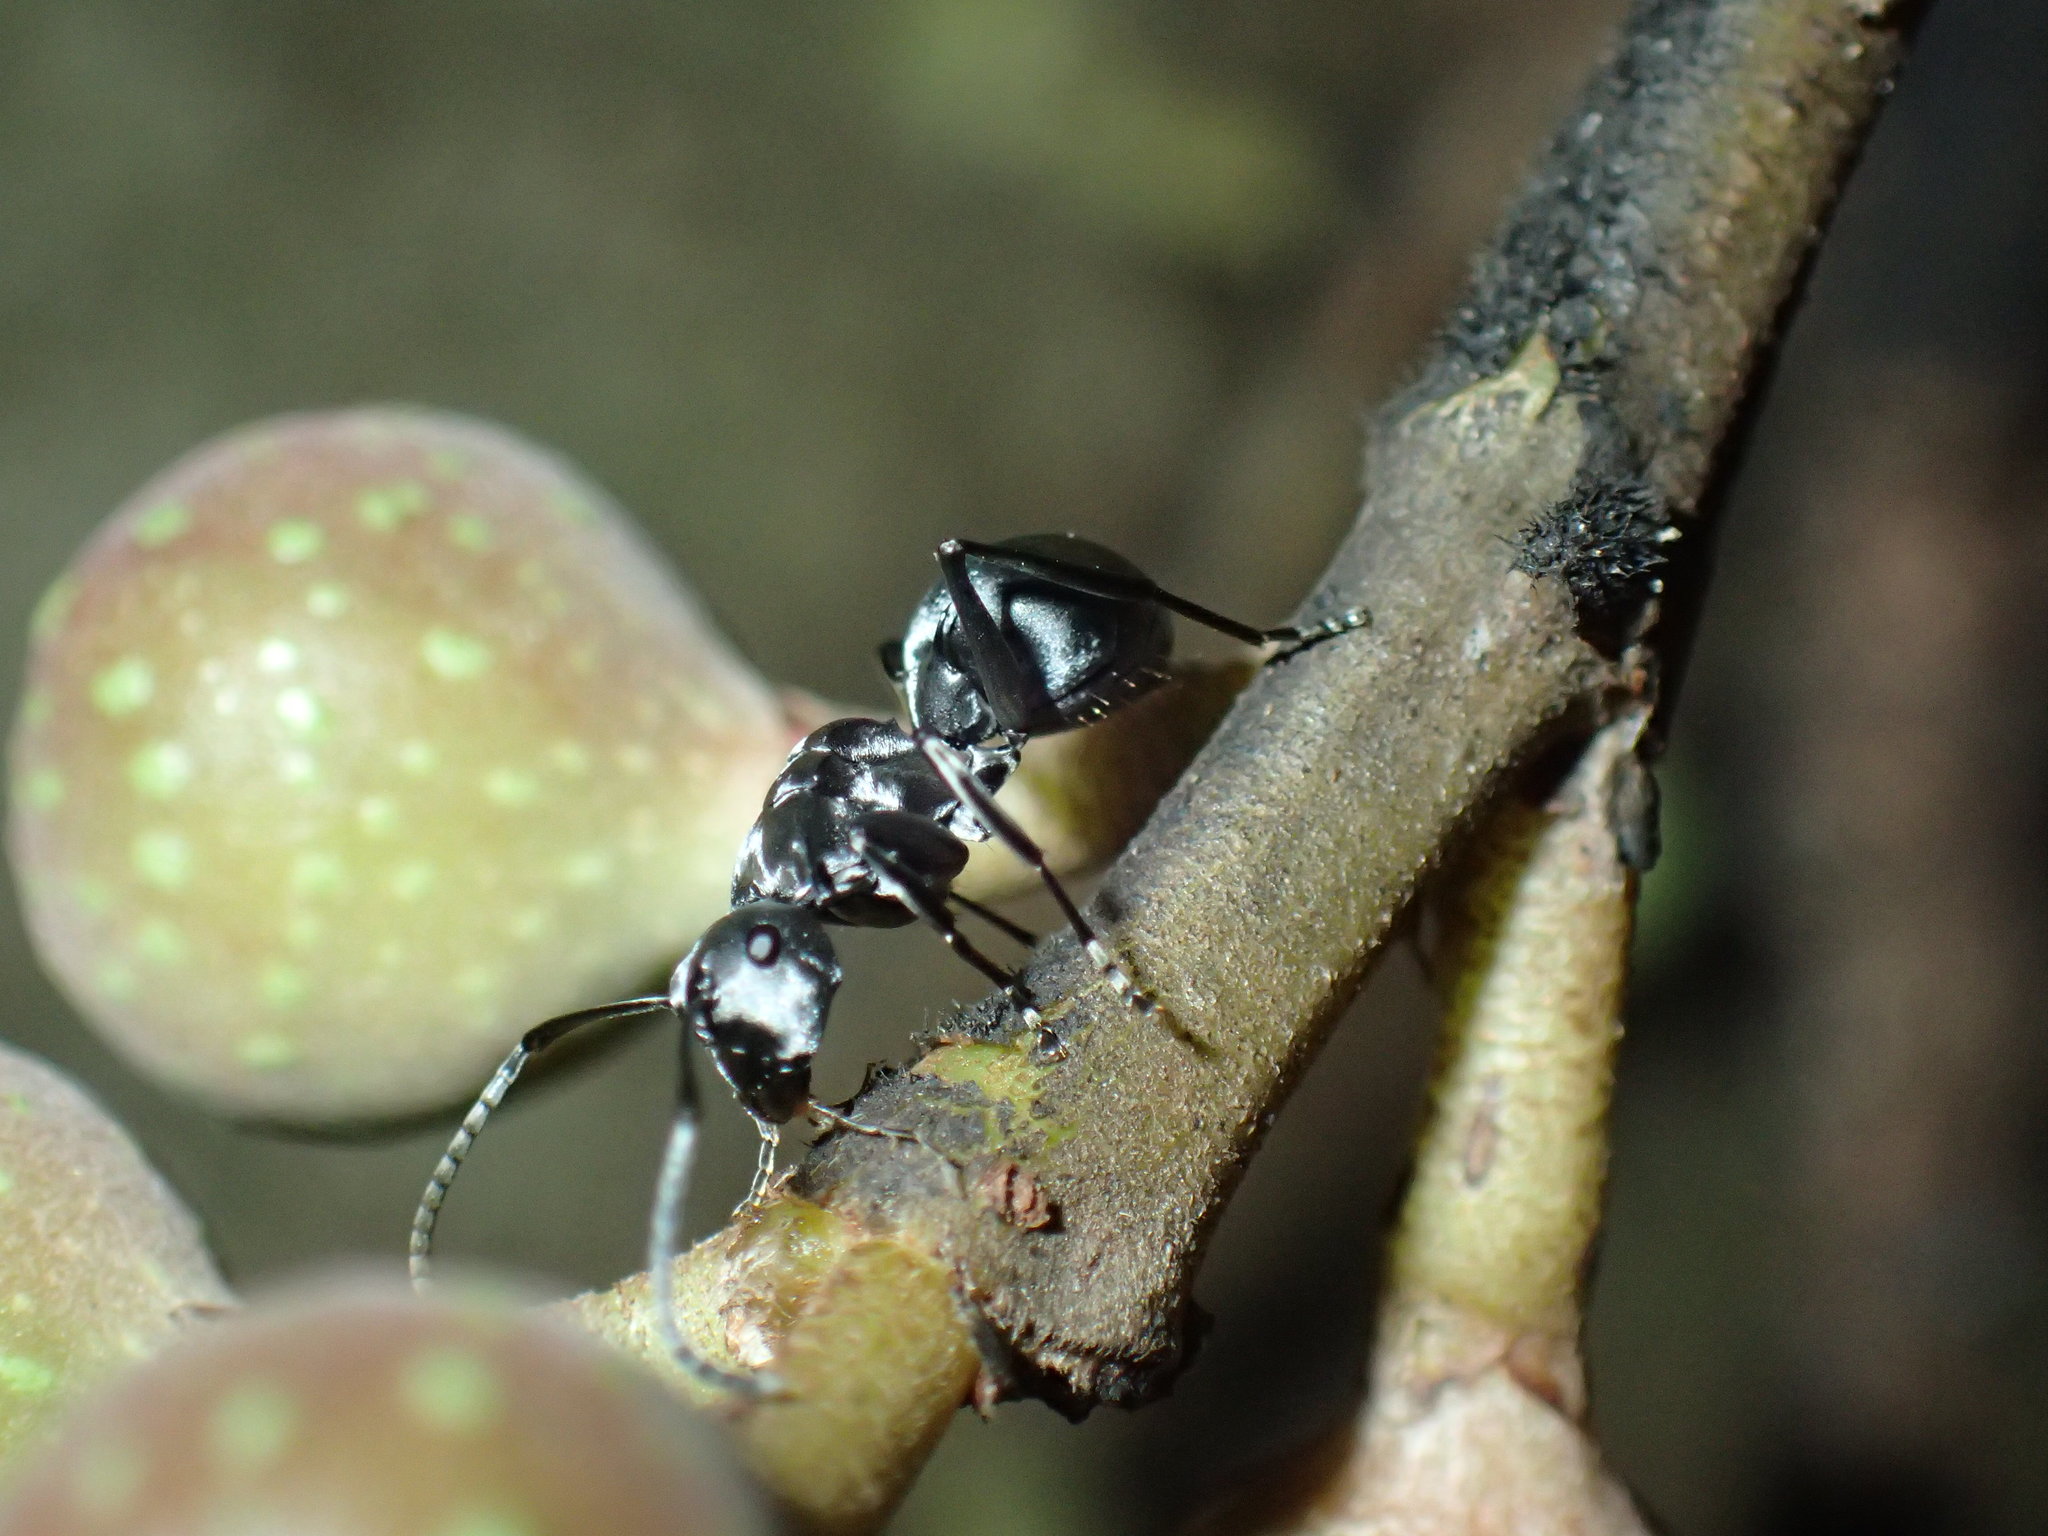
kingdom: Animalia
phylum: Arthropoda
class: Insecta
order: Hymenoptera
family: Formicidae
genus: Polyrhachis
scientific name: Polyrhachis schlueteri
